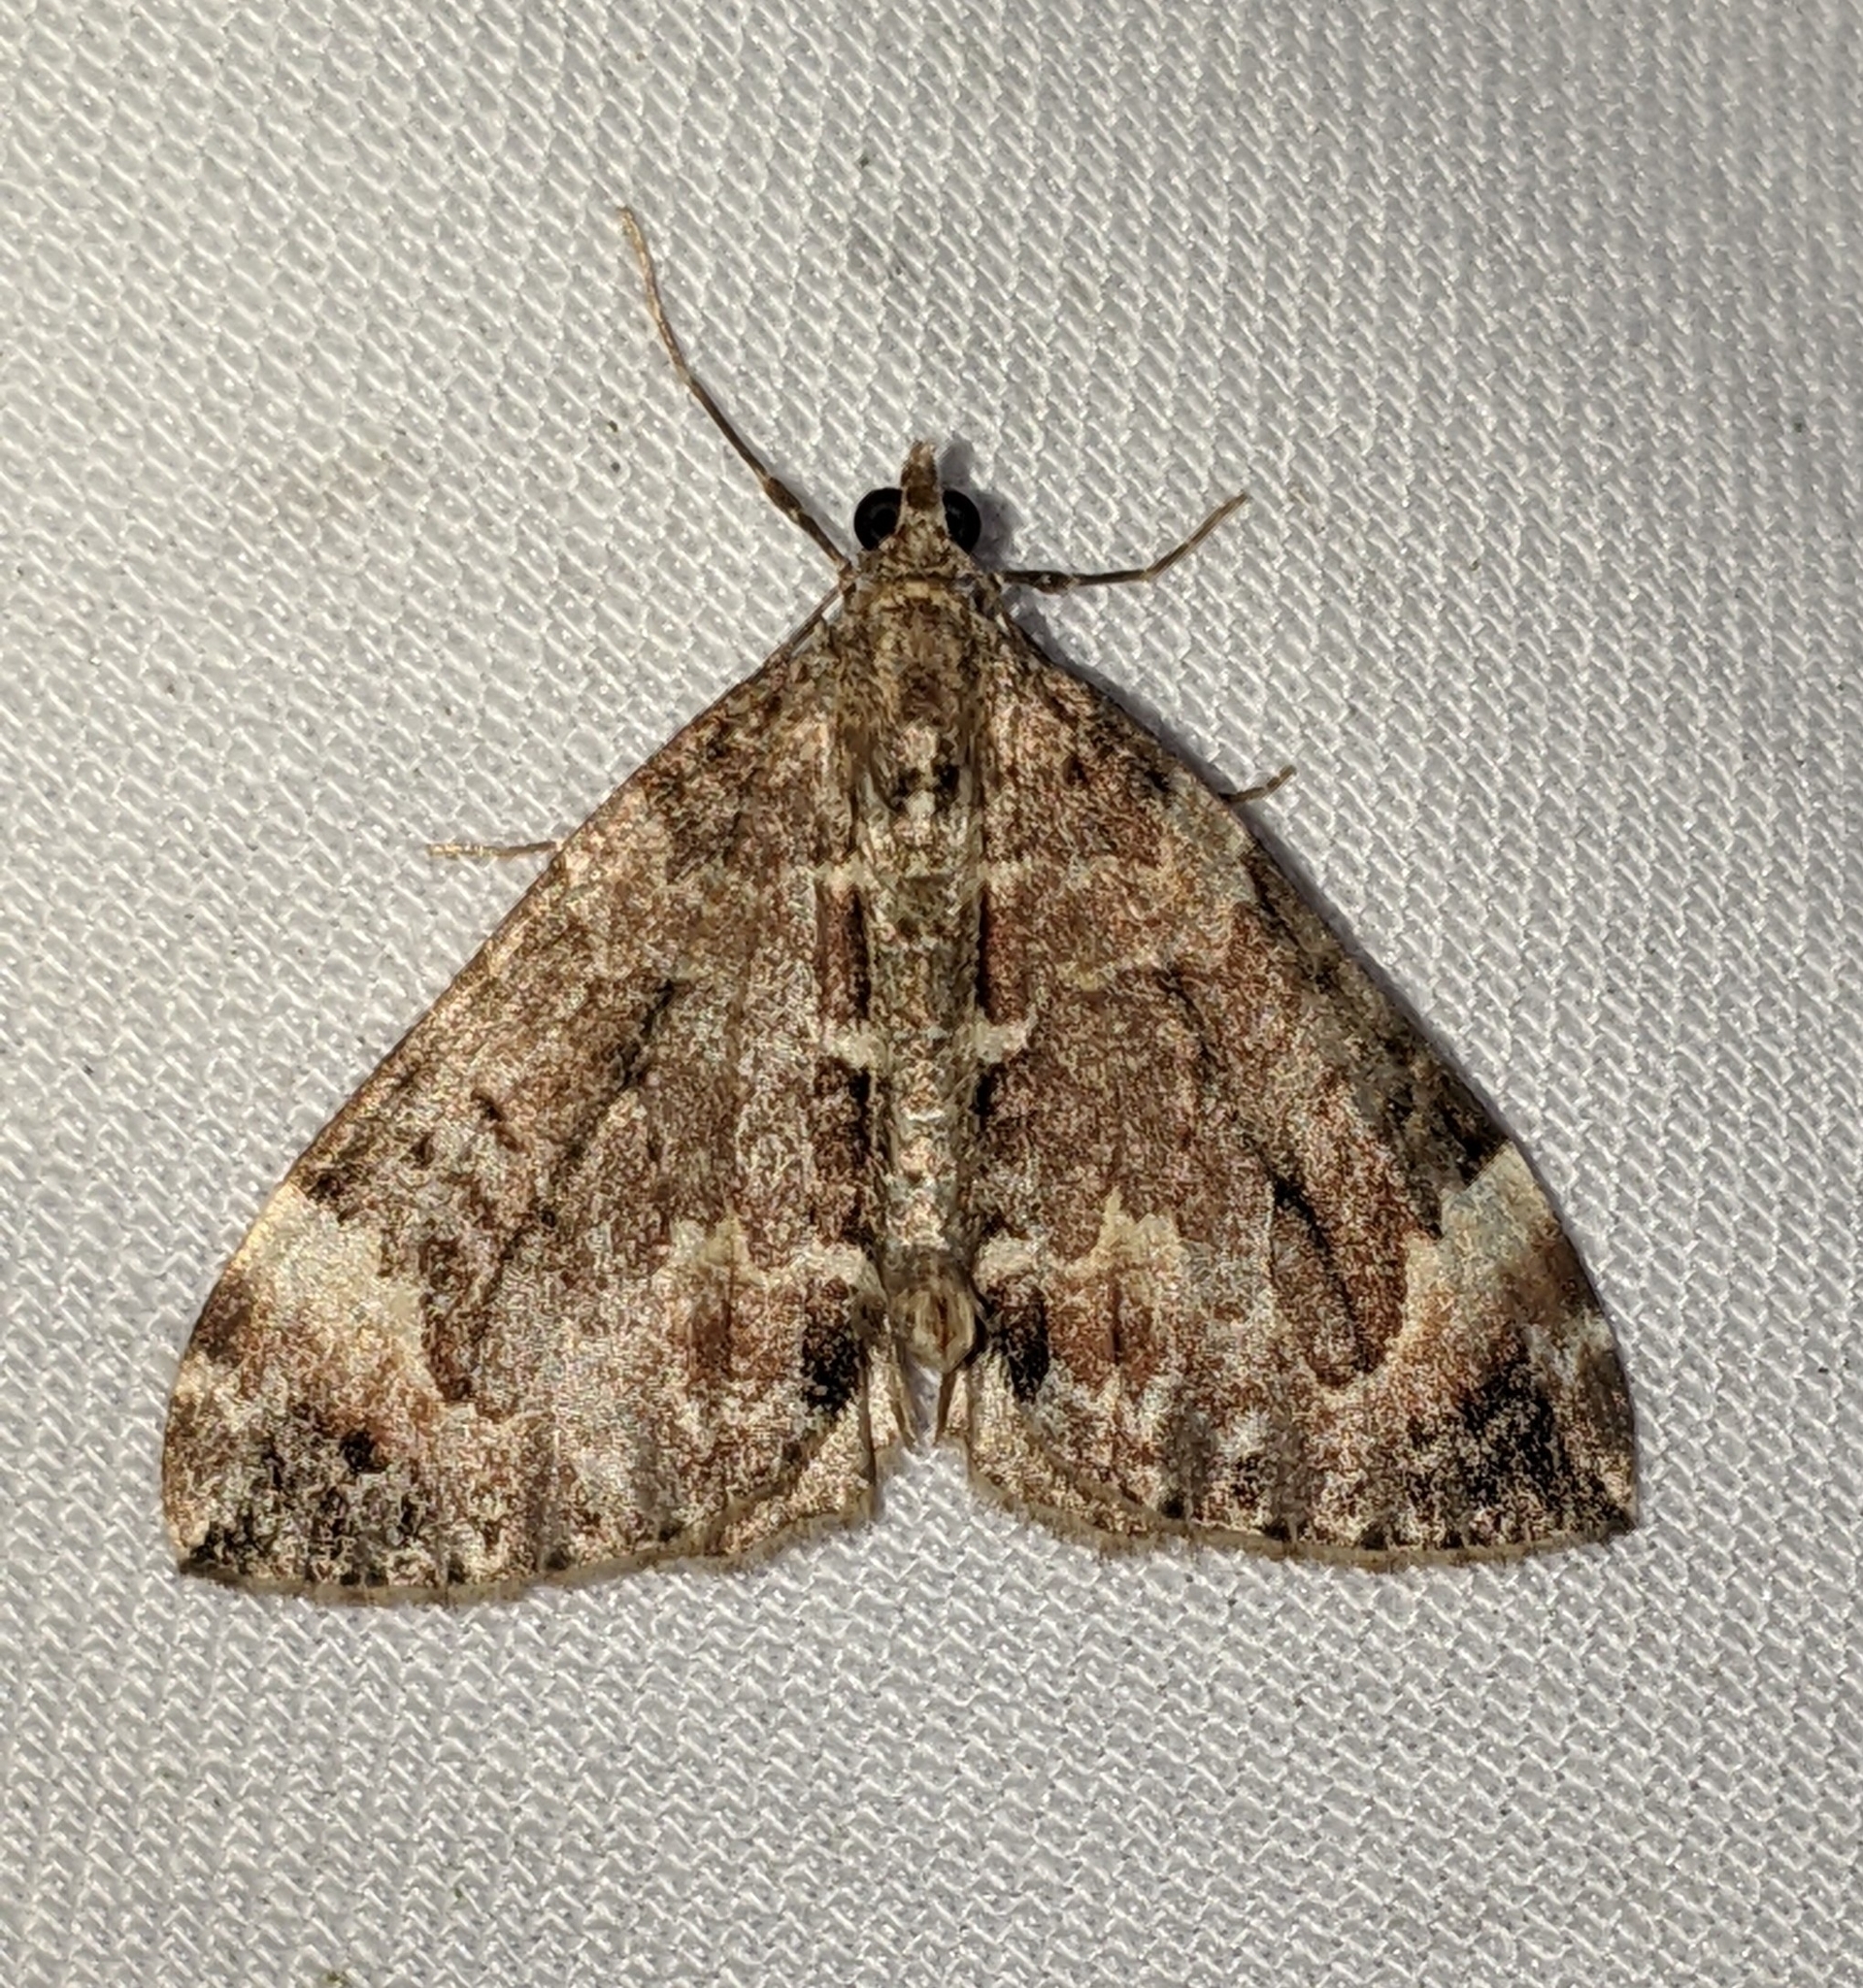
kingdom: Animalia
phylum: Arthropoda
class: Insecta
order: Lepidoptera
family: Geometridae
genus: Dysstroma
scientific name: Dysstroma citrata
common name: Dark marbled carpet
